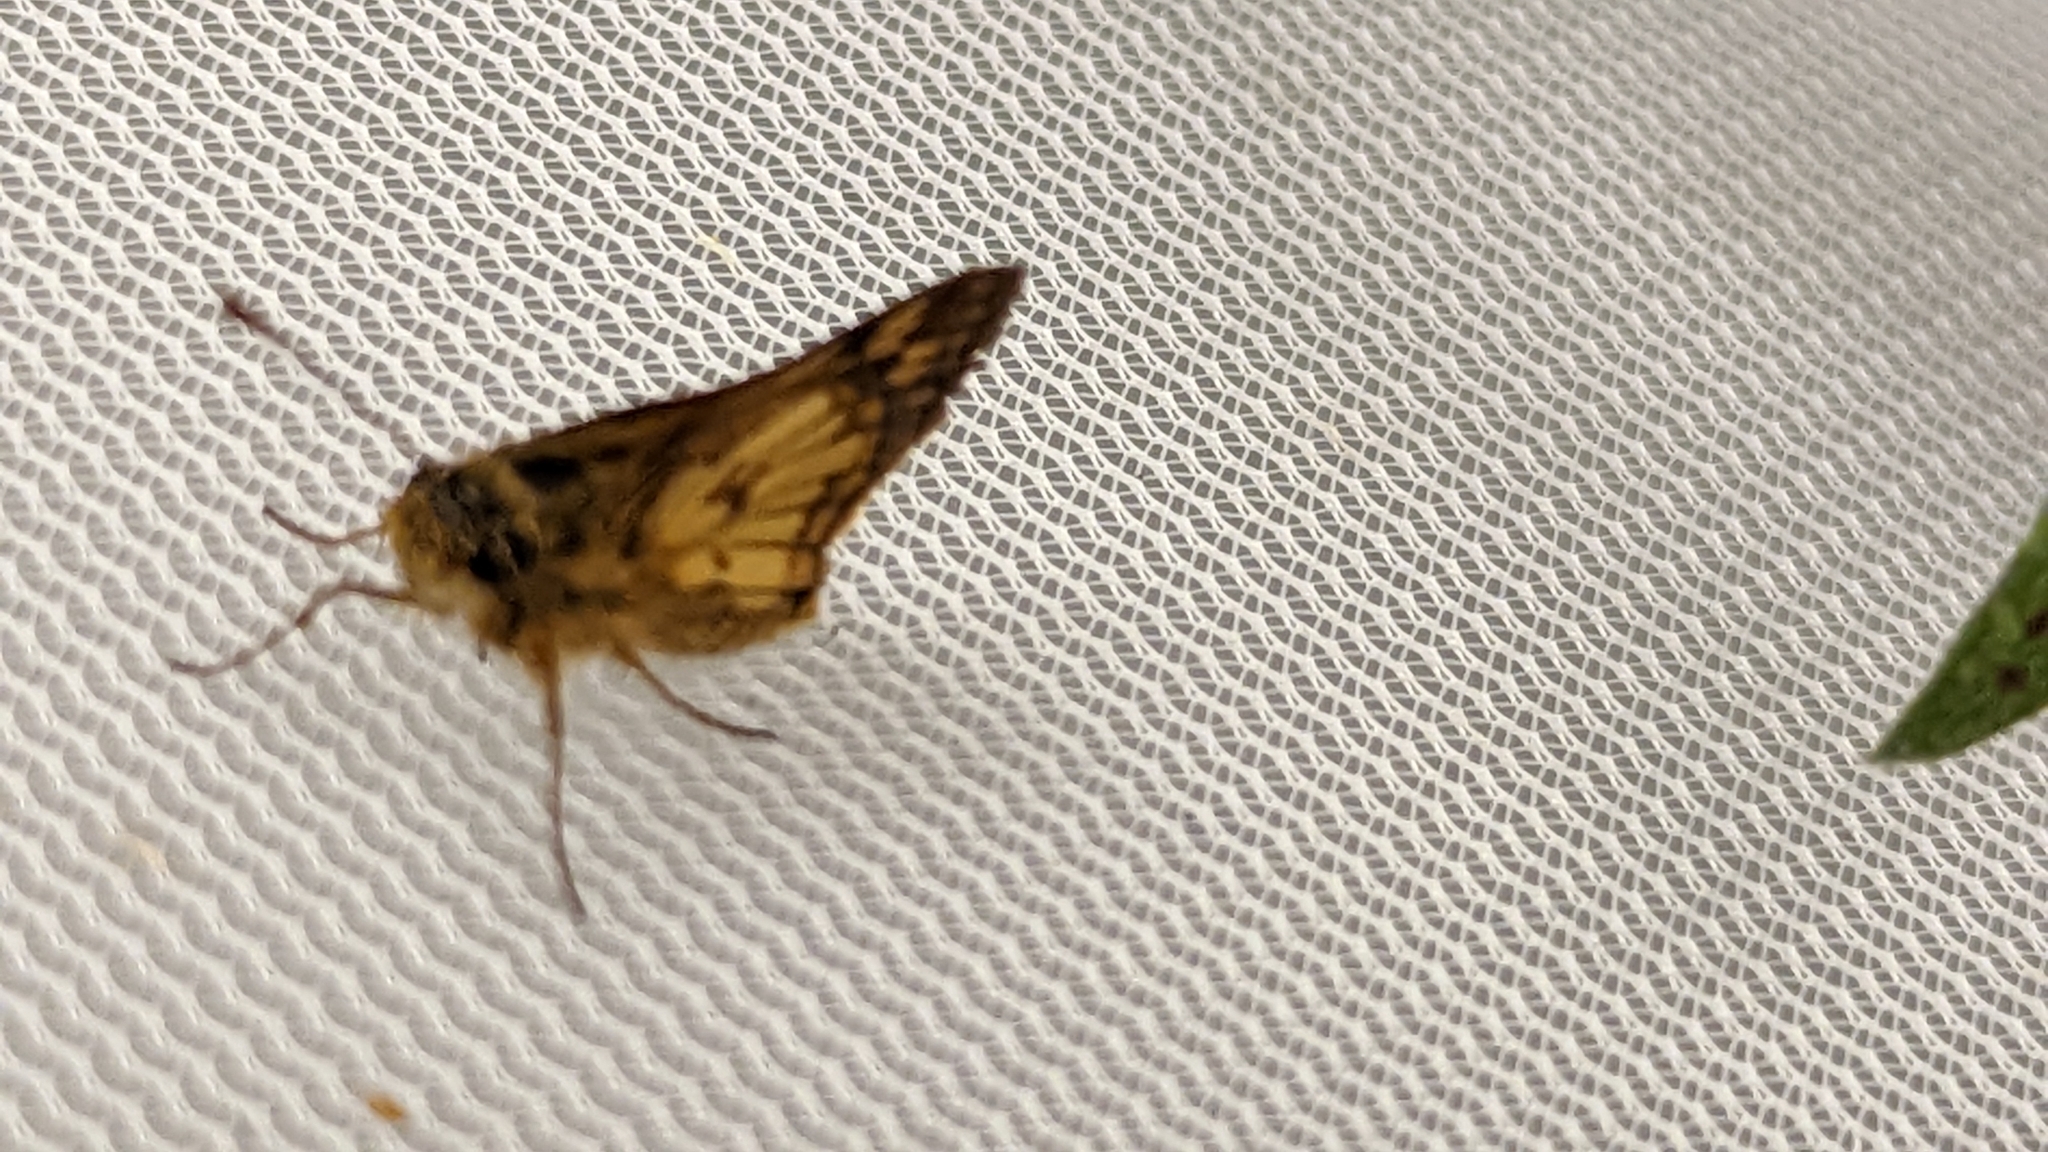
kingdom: Animalia
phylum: Arthropoda
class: Insecta
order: Lepidoptera
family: Hesperiidae
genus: Polites
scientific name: Polites coras
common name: Peck's skipper
